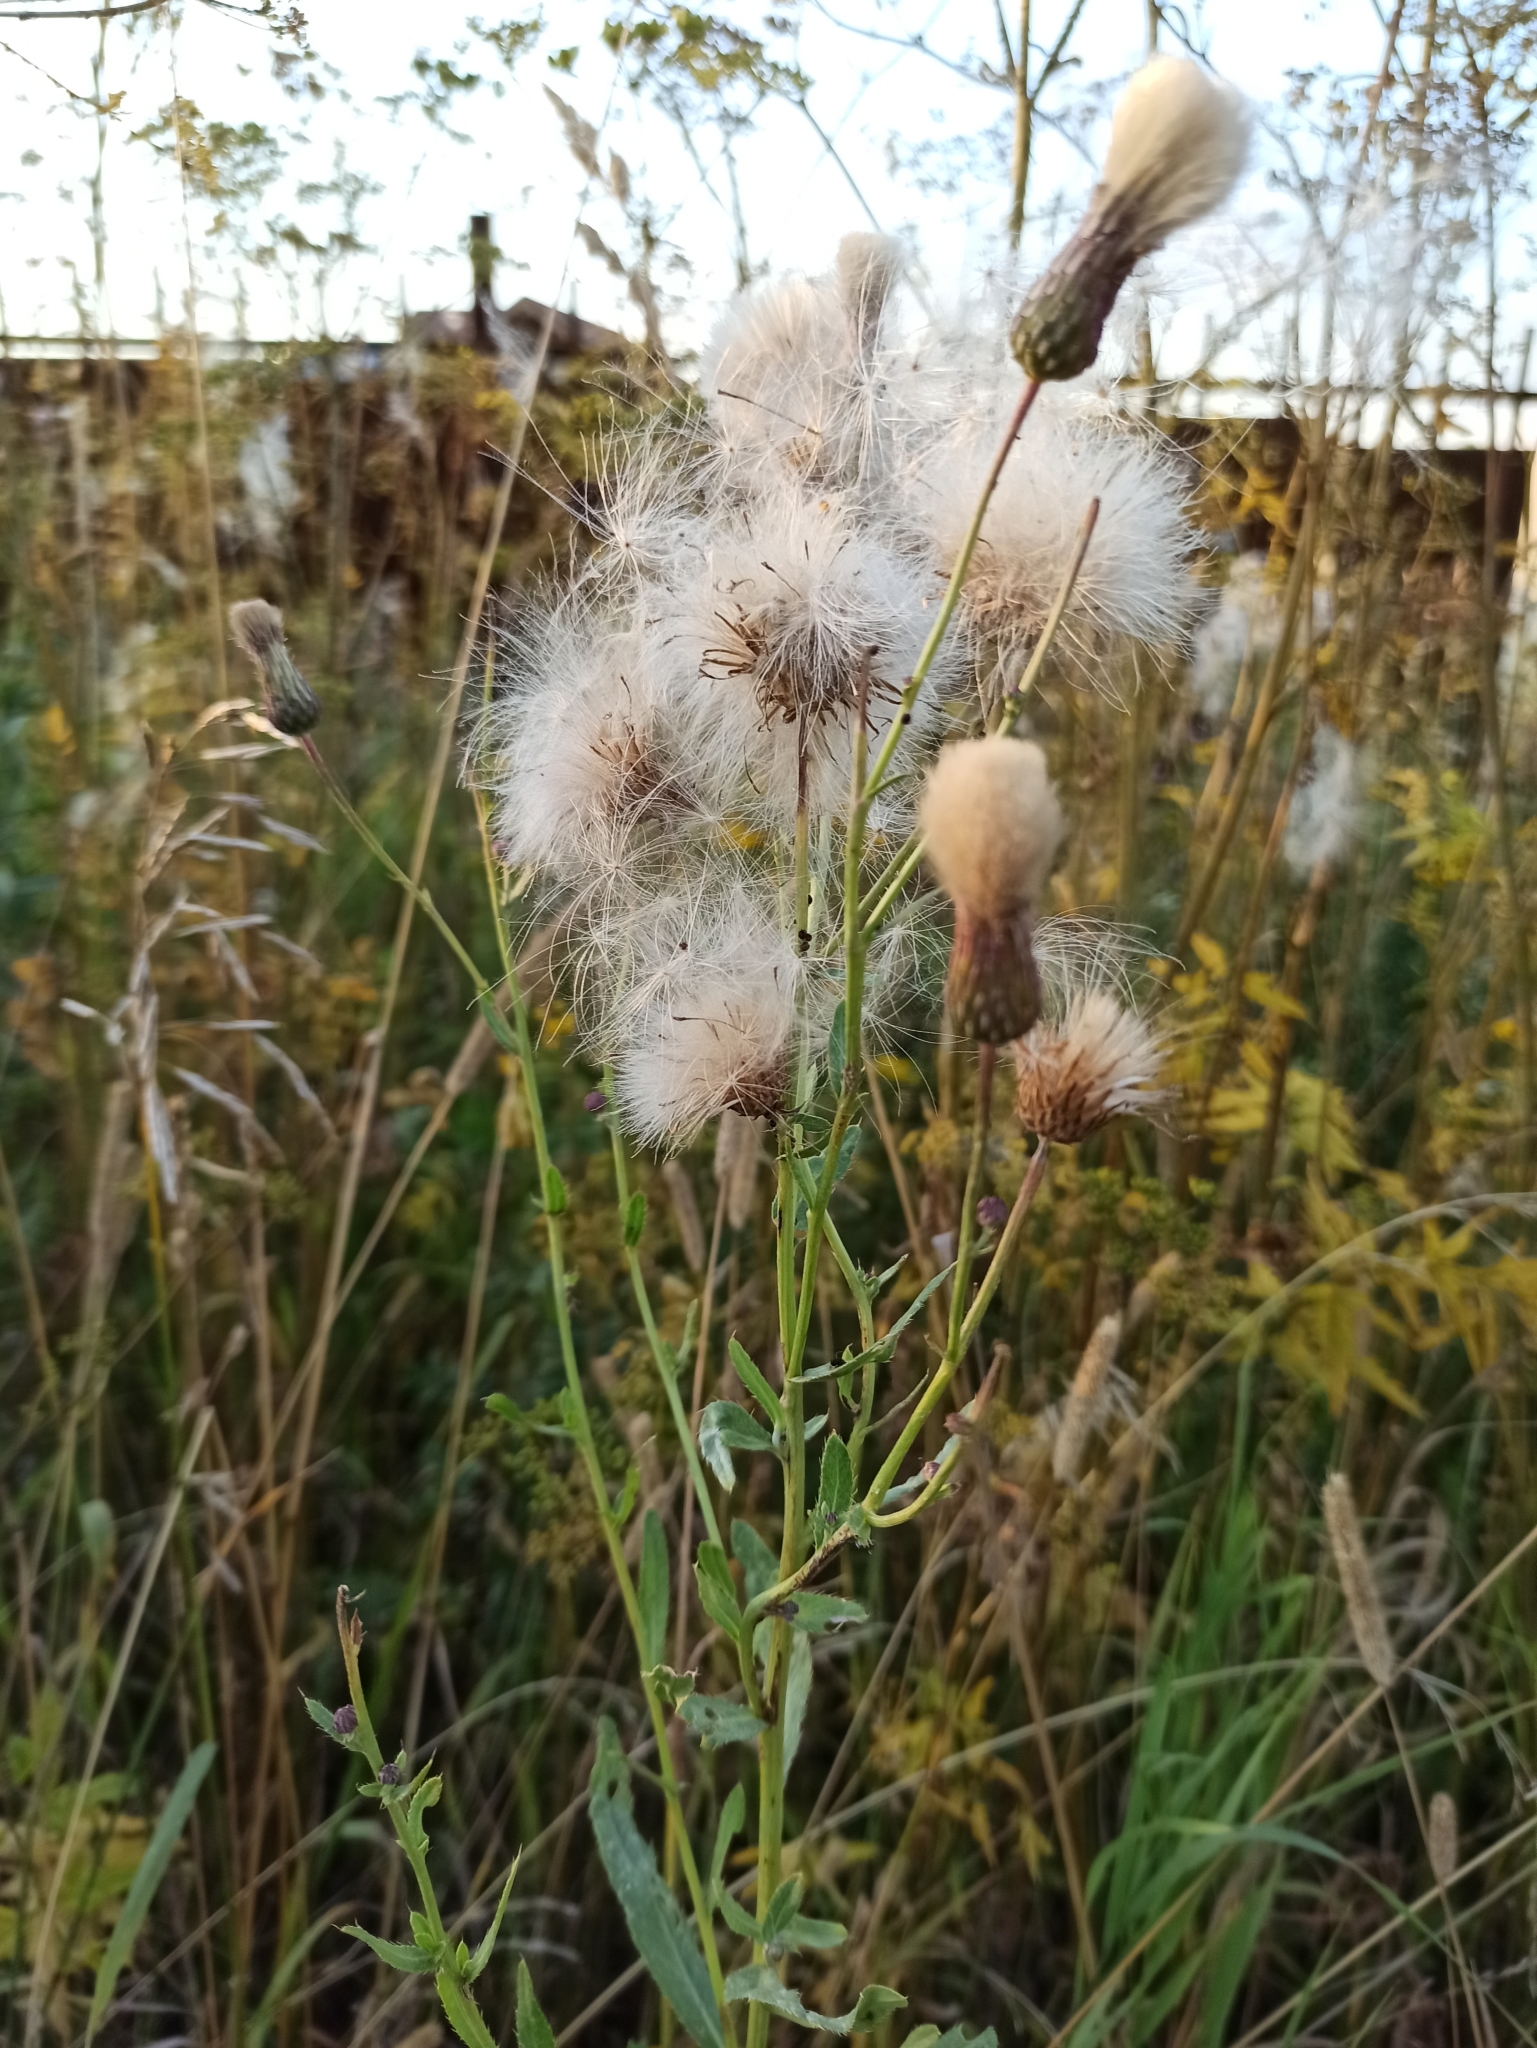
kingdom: Plantae
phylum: Tracheophyta
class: Magnoliopsida
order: Asterales
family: Asteraceae
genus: Cirsium
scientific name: Cirsium arvense
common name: Creeping thistle
